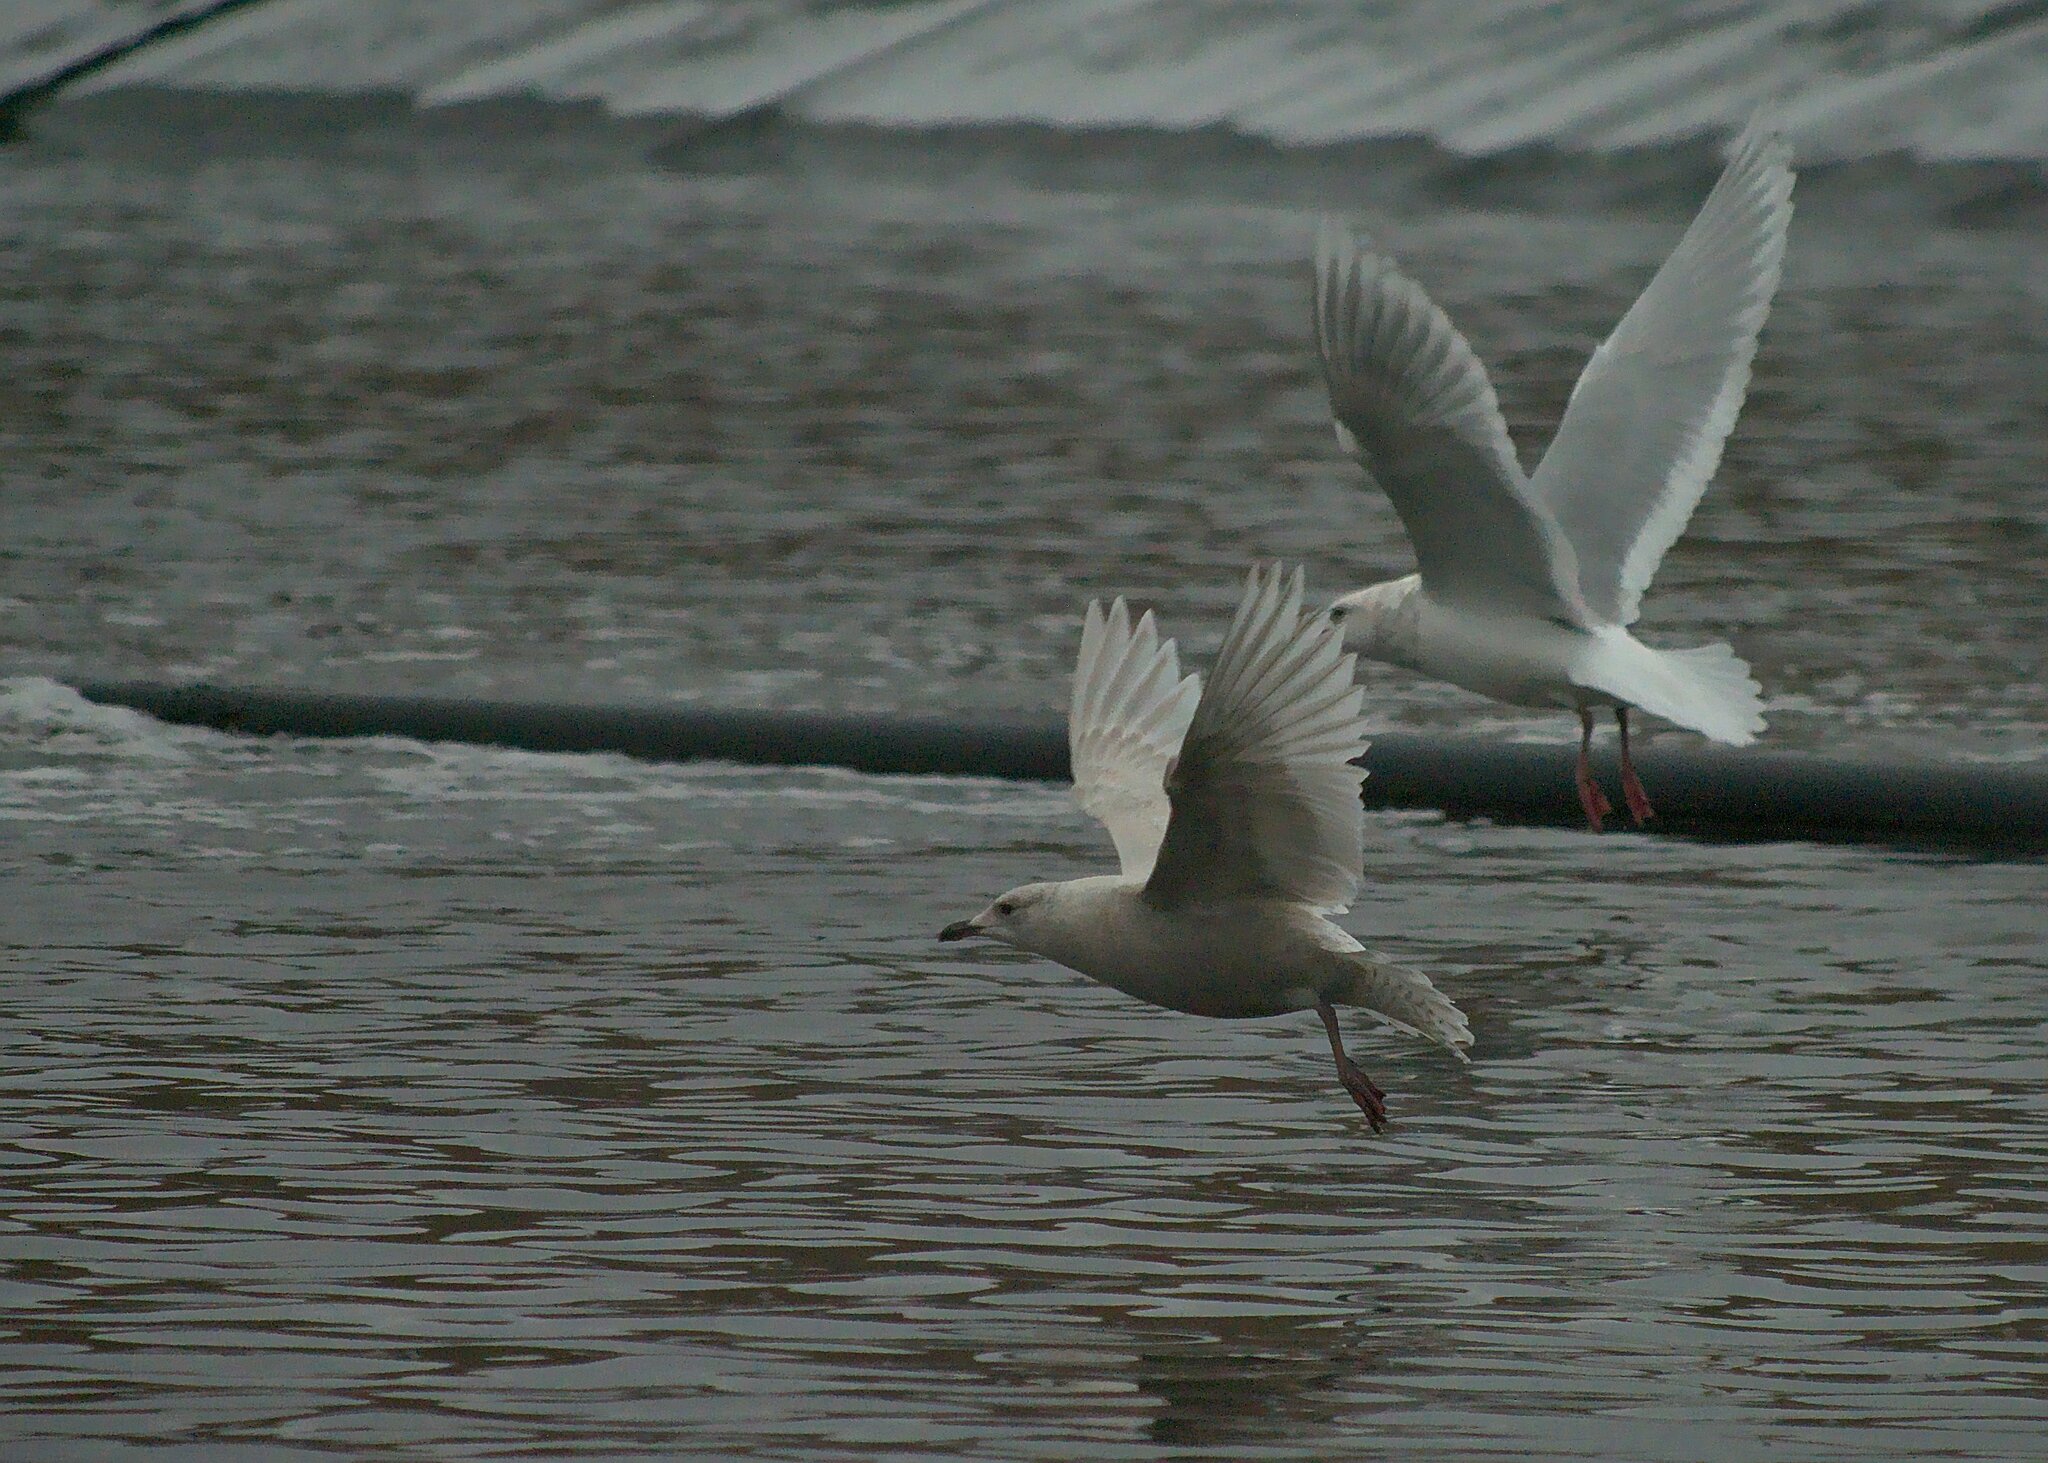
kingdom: Animalia
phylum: Chordata
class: Aves
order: Charadriiformes
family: Laridae
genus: Larus
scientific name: Larus glaucoides
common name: Iceland gull
